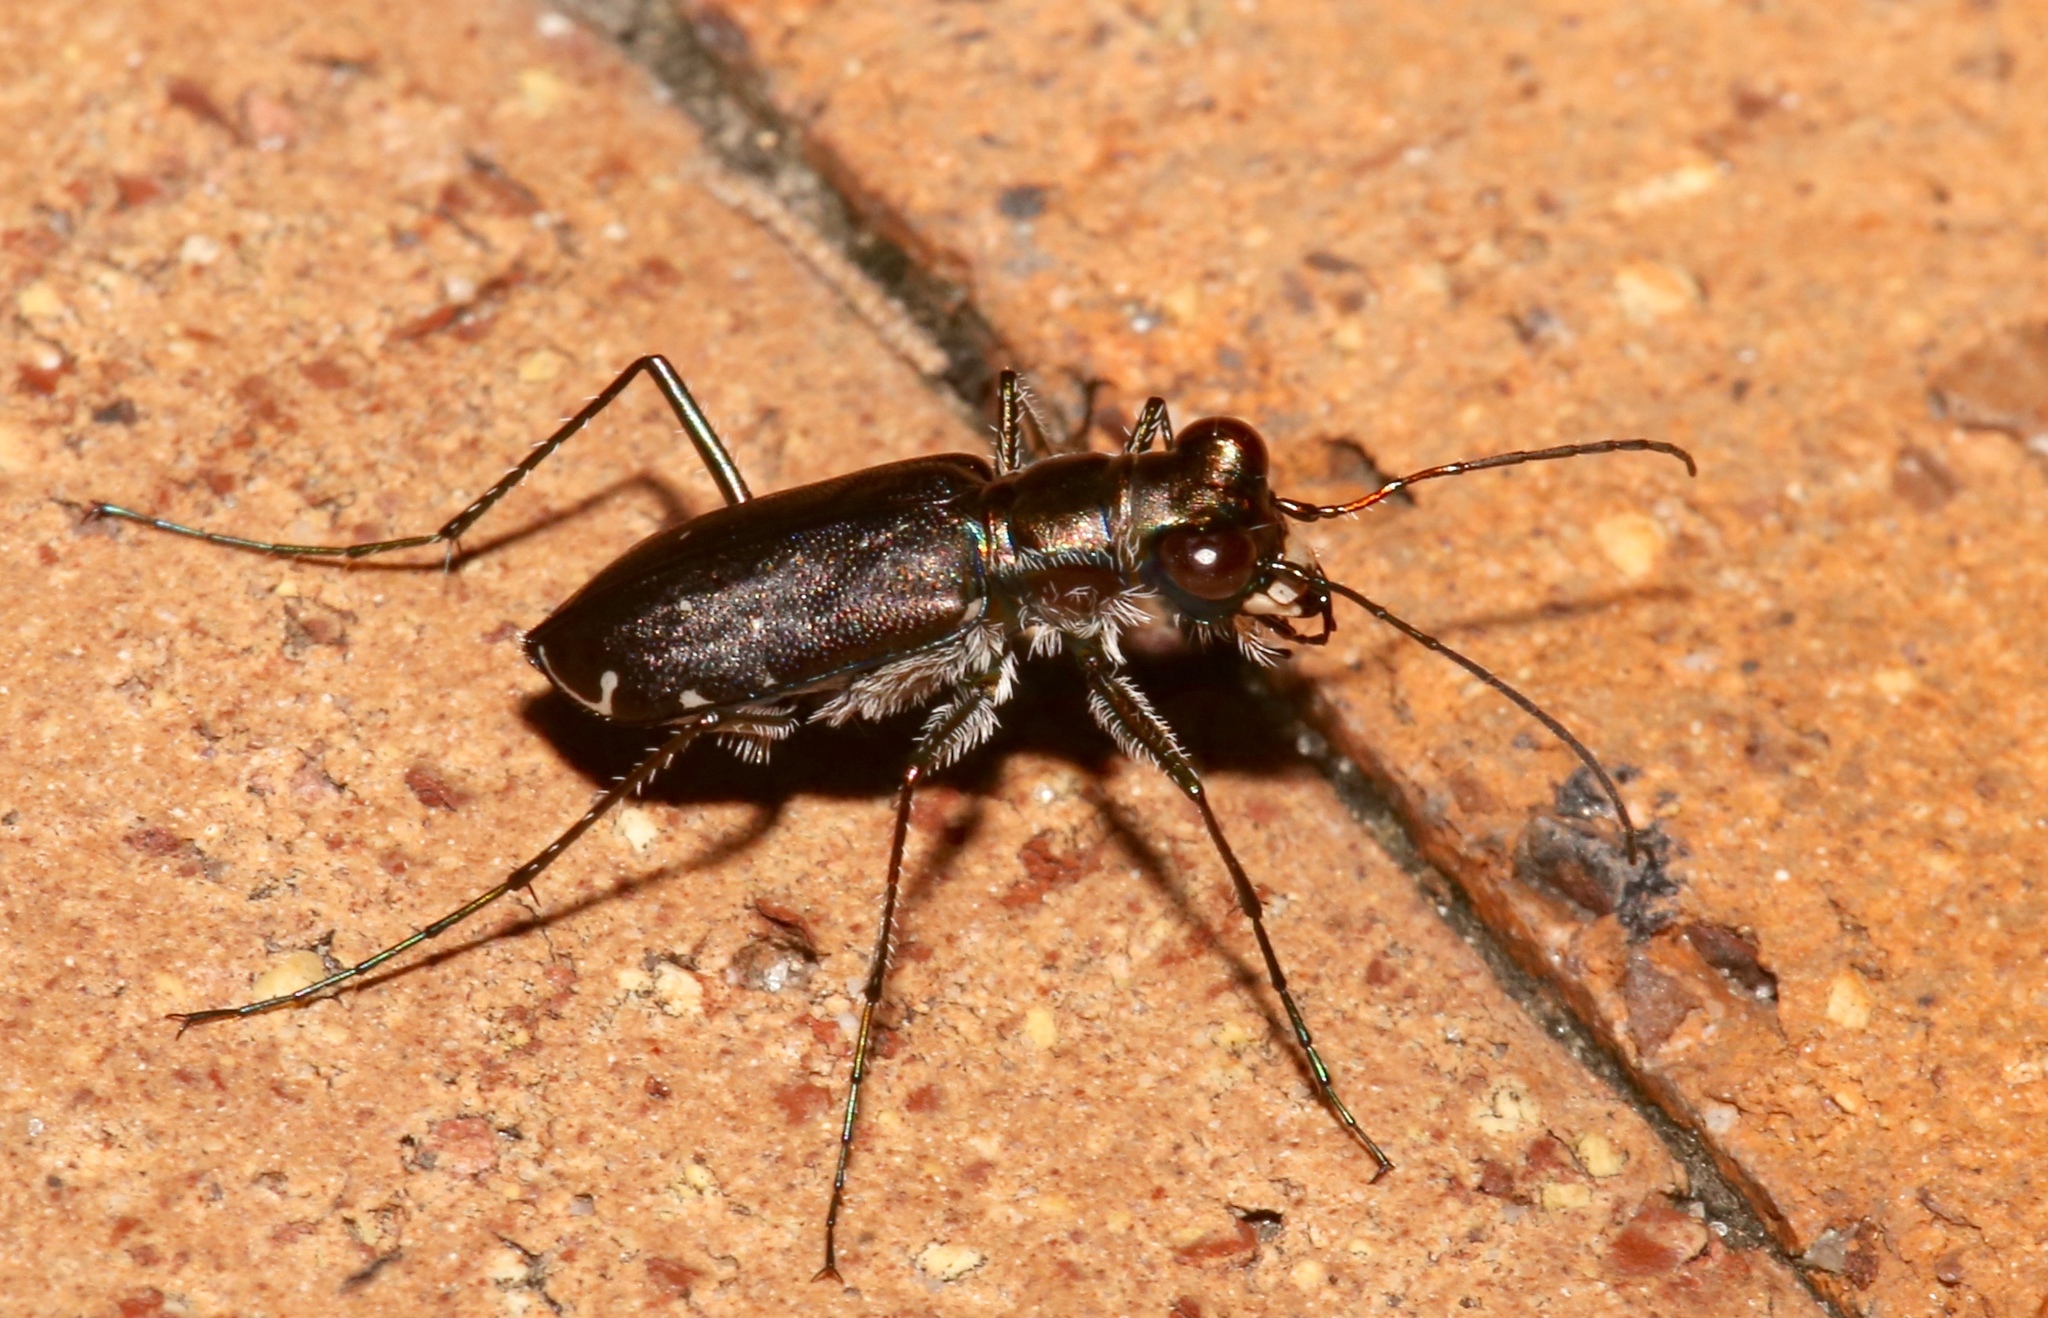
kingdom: Animalia
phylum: Arthropoda
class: Insecta
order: Coleoptera
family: Carabidae
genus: Cicindela
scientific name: Cicindela punctulata
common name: Punctured tiger beetle
